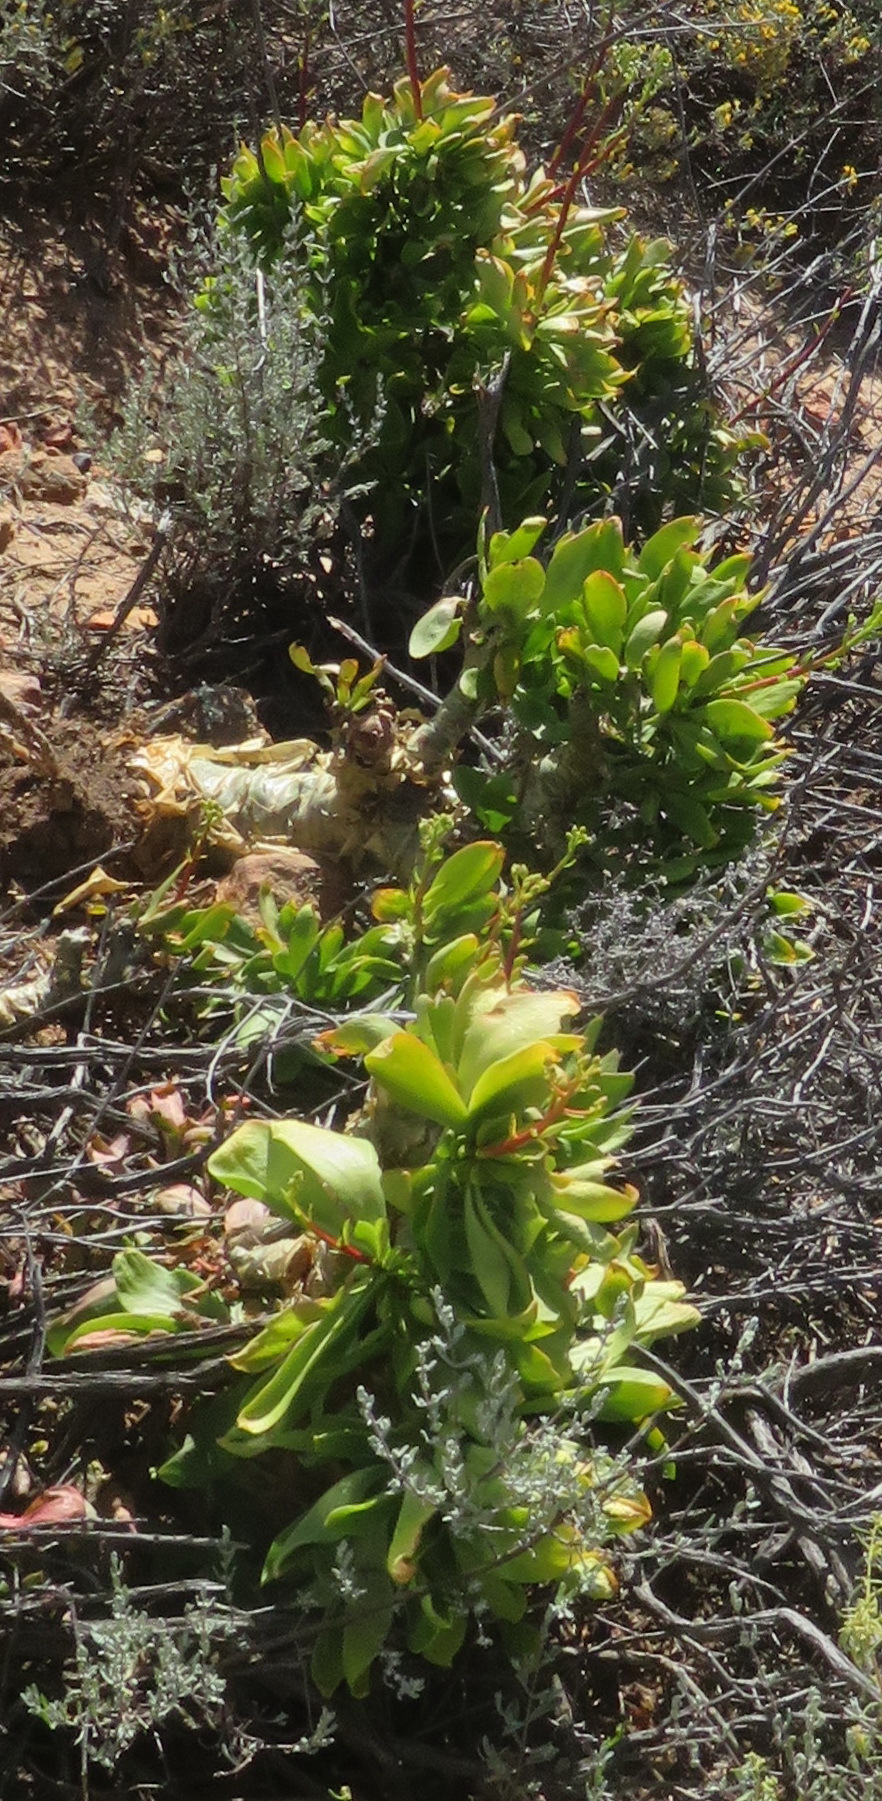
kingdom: Plantae
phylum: Tracheophyta
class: Magnoliopsida
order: Saxifragales
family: Crassulaceae
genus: Tylecodon
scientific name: Tylecodon paniculatus
